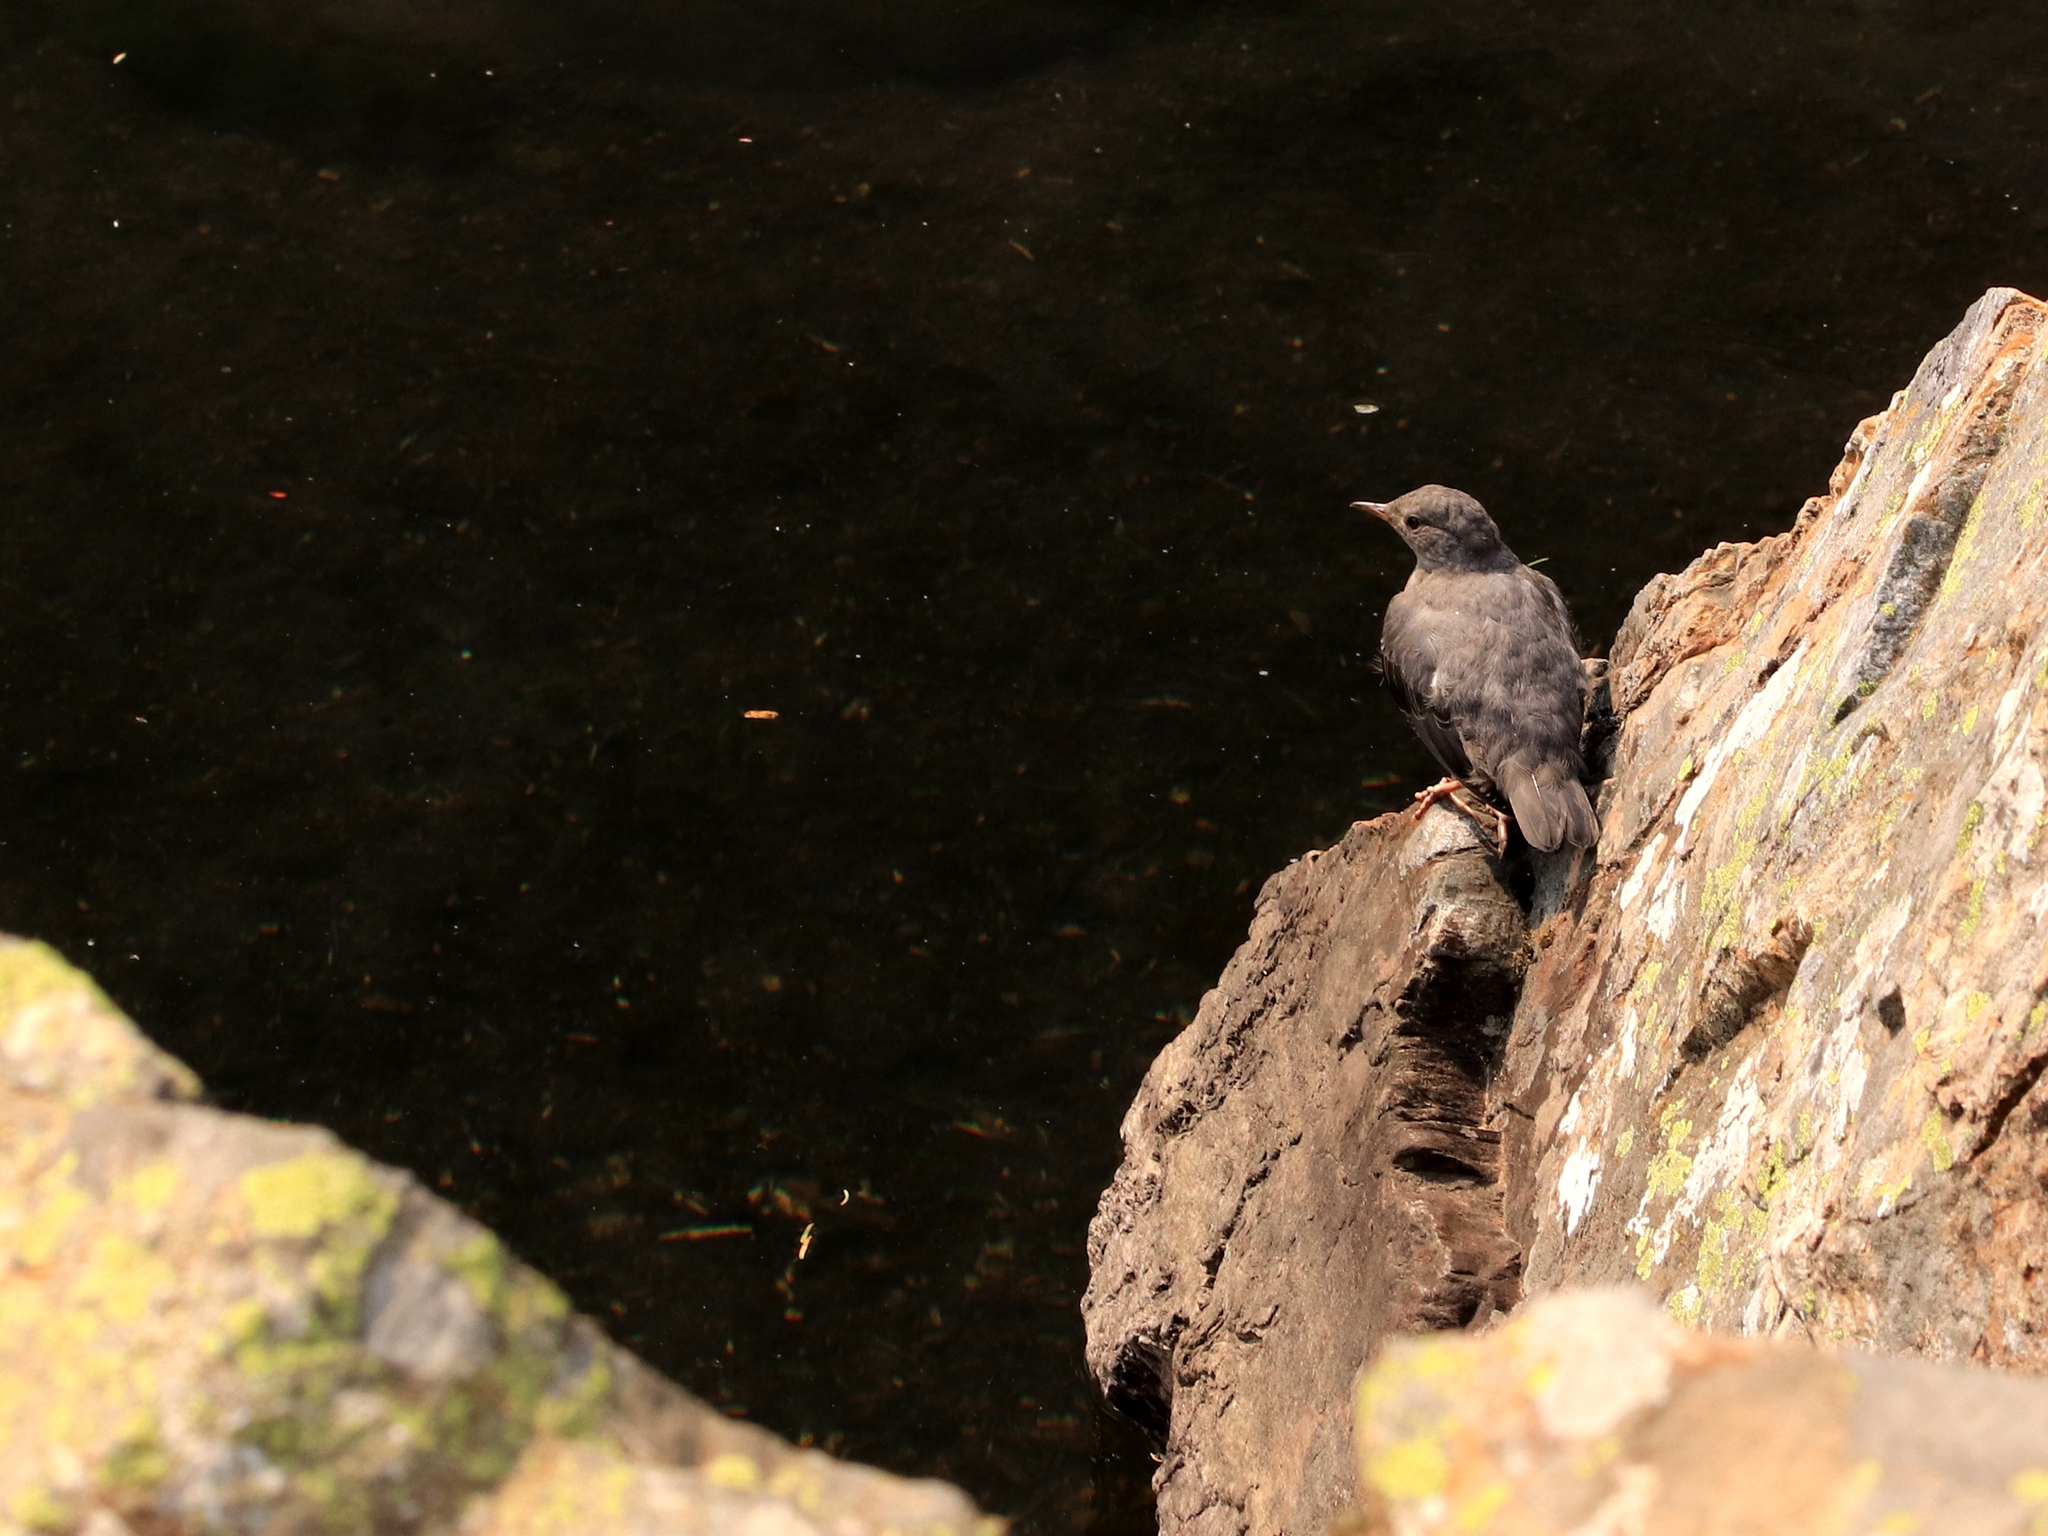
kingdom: Animalia
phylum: Chordata
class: Aves
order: Passeriformes
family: Cinclidae
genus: Cinclus
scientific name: Cinclus mexicanus
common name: American dipper
